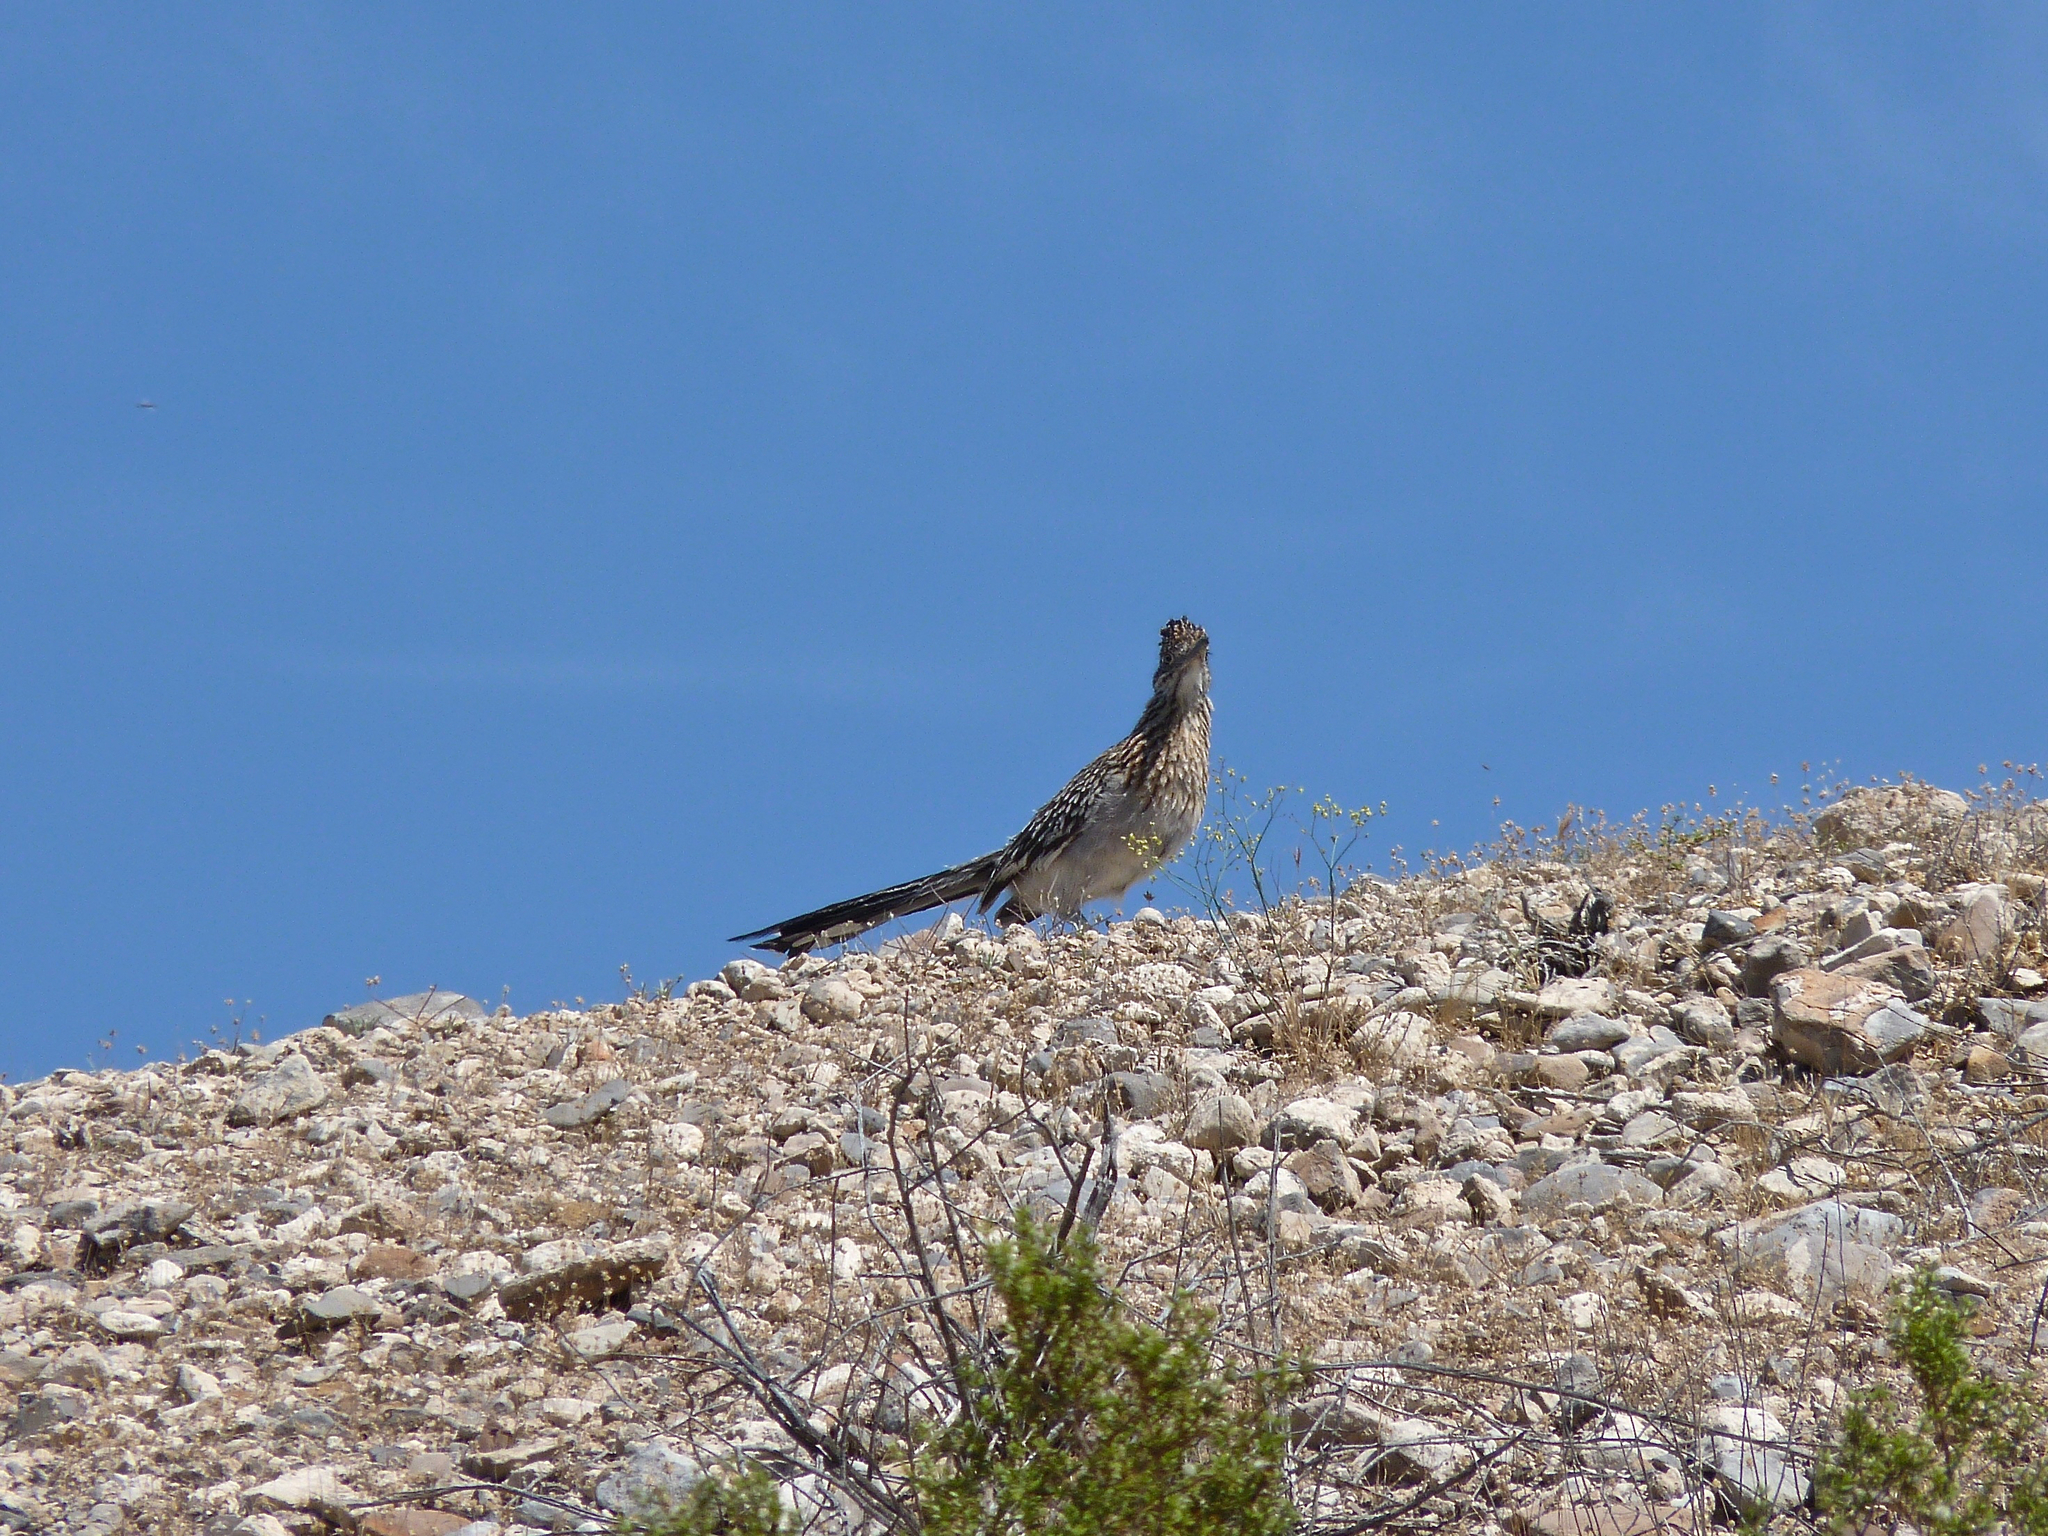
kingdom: Animalia
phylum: Chordata
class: Aves
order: Cuculiformes
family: Cuculidae
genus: Geococcyx
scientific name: Geococcyx californianus
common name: Greater roadrunner
